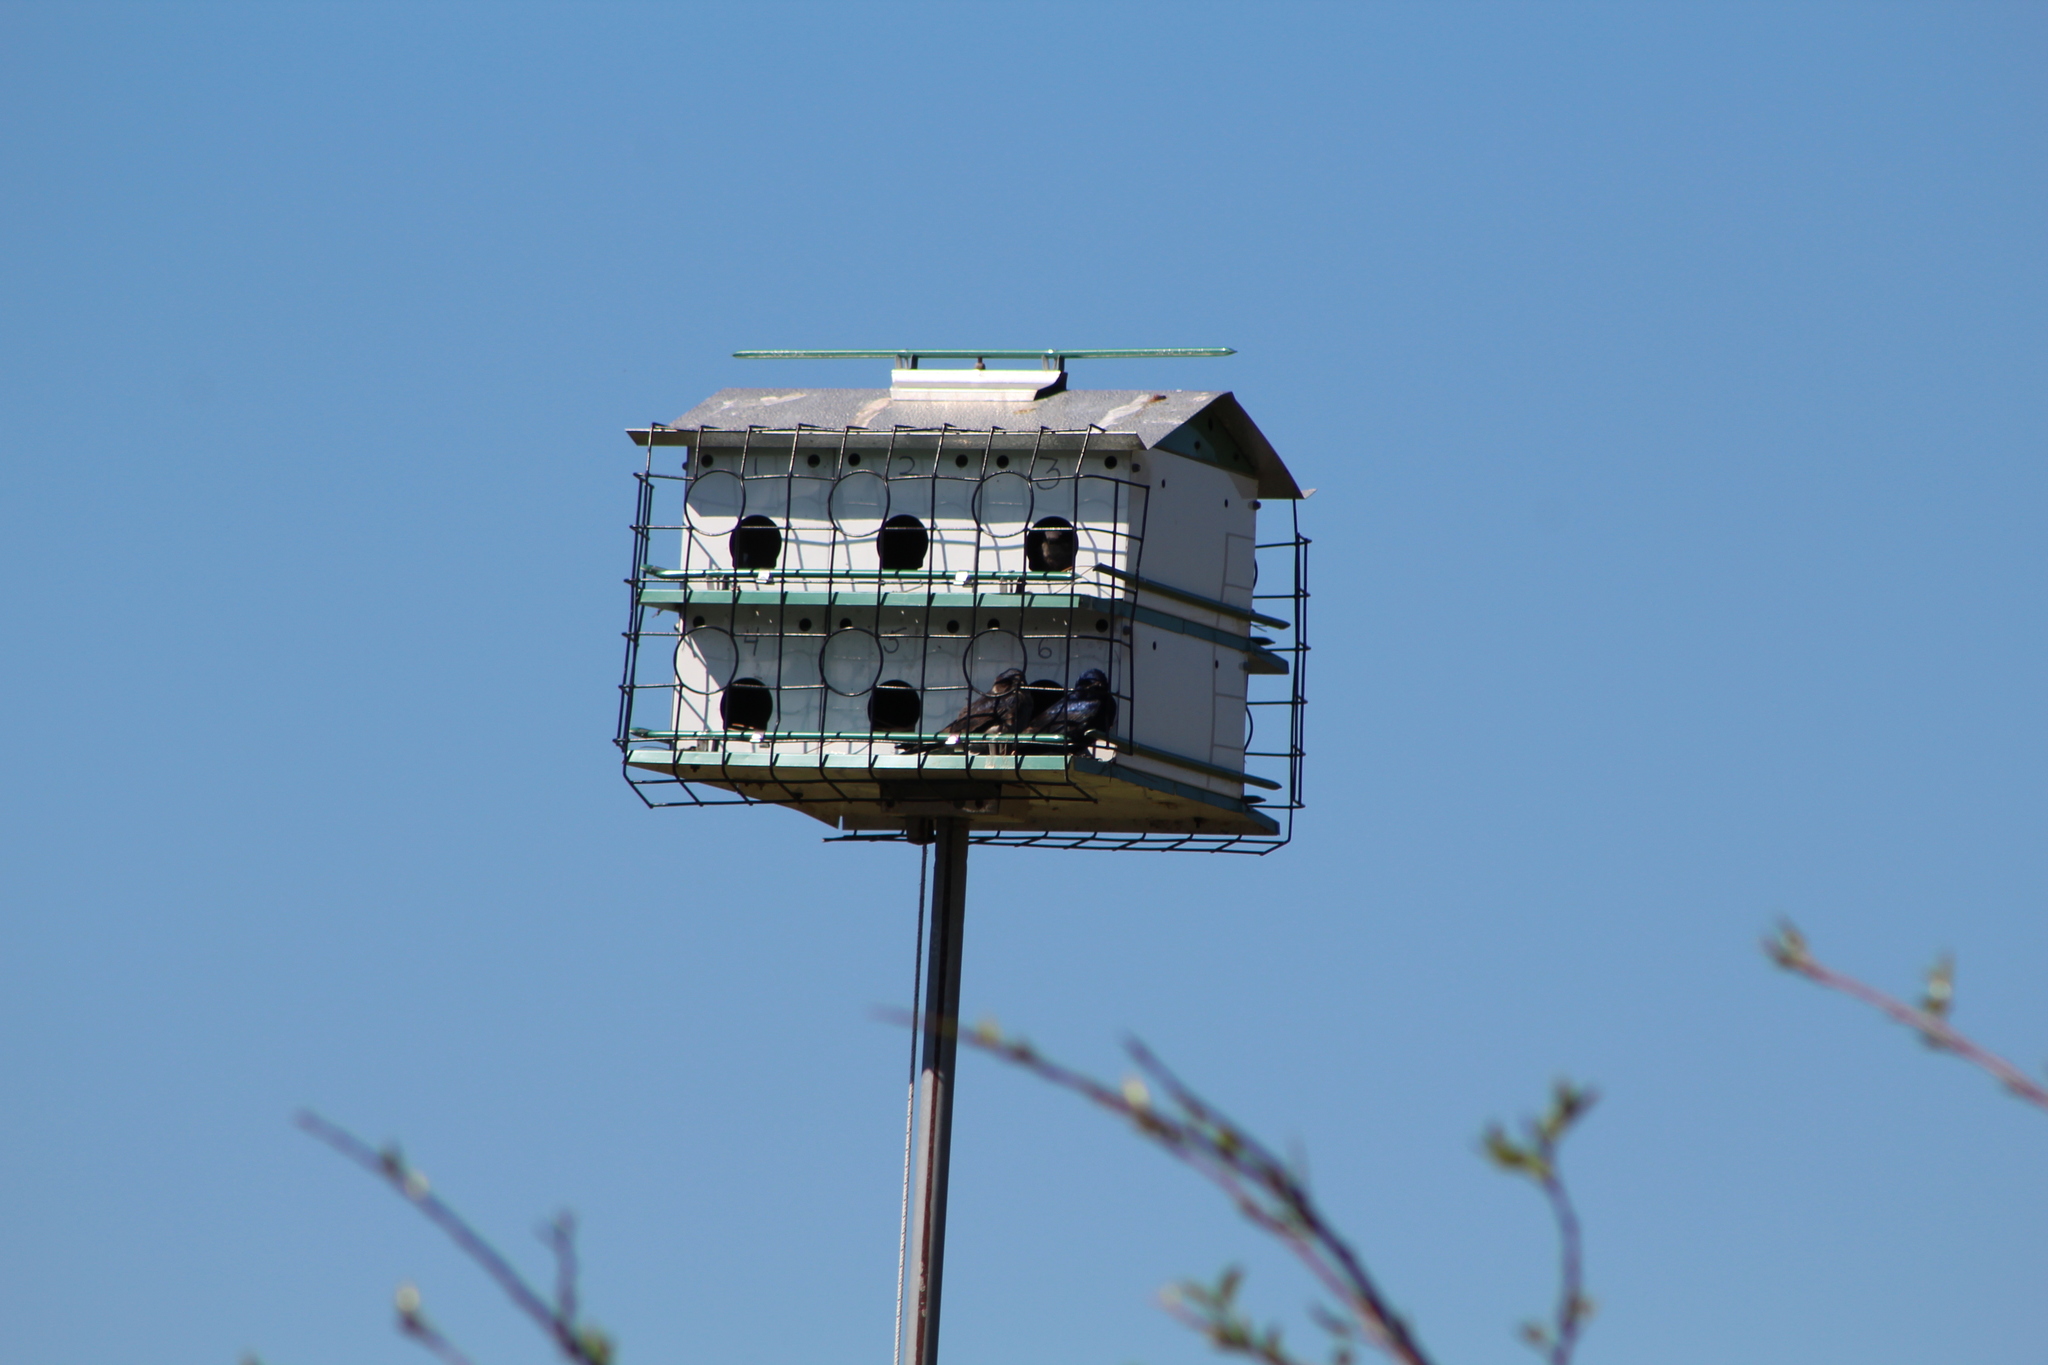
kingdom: Animalia
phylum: Chordata
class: Aves
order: Passeriformes
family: Hirundinidae
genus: Progne
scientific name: Progne subis
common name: Purple martin
